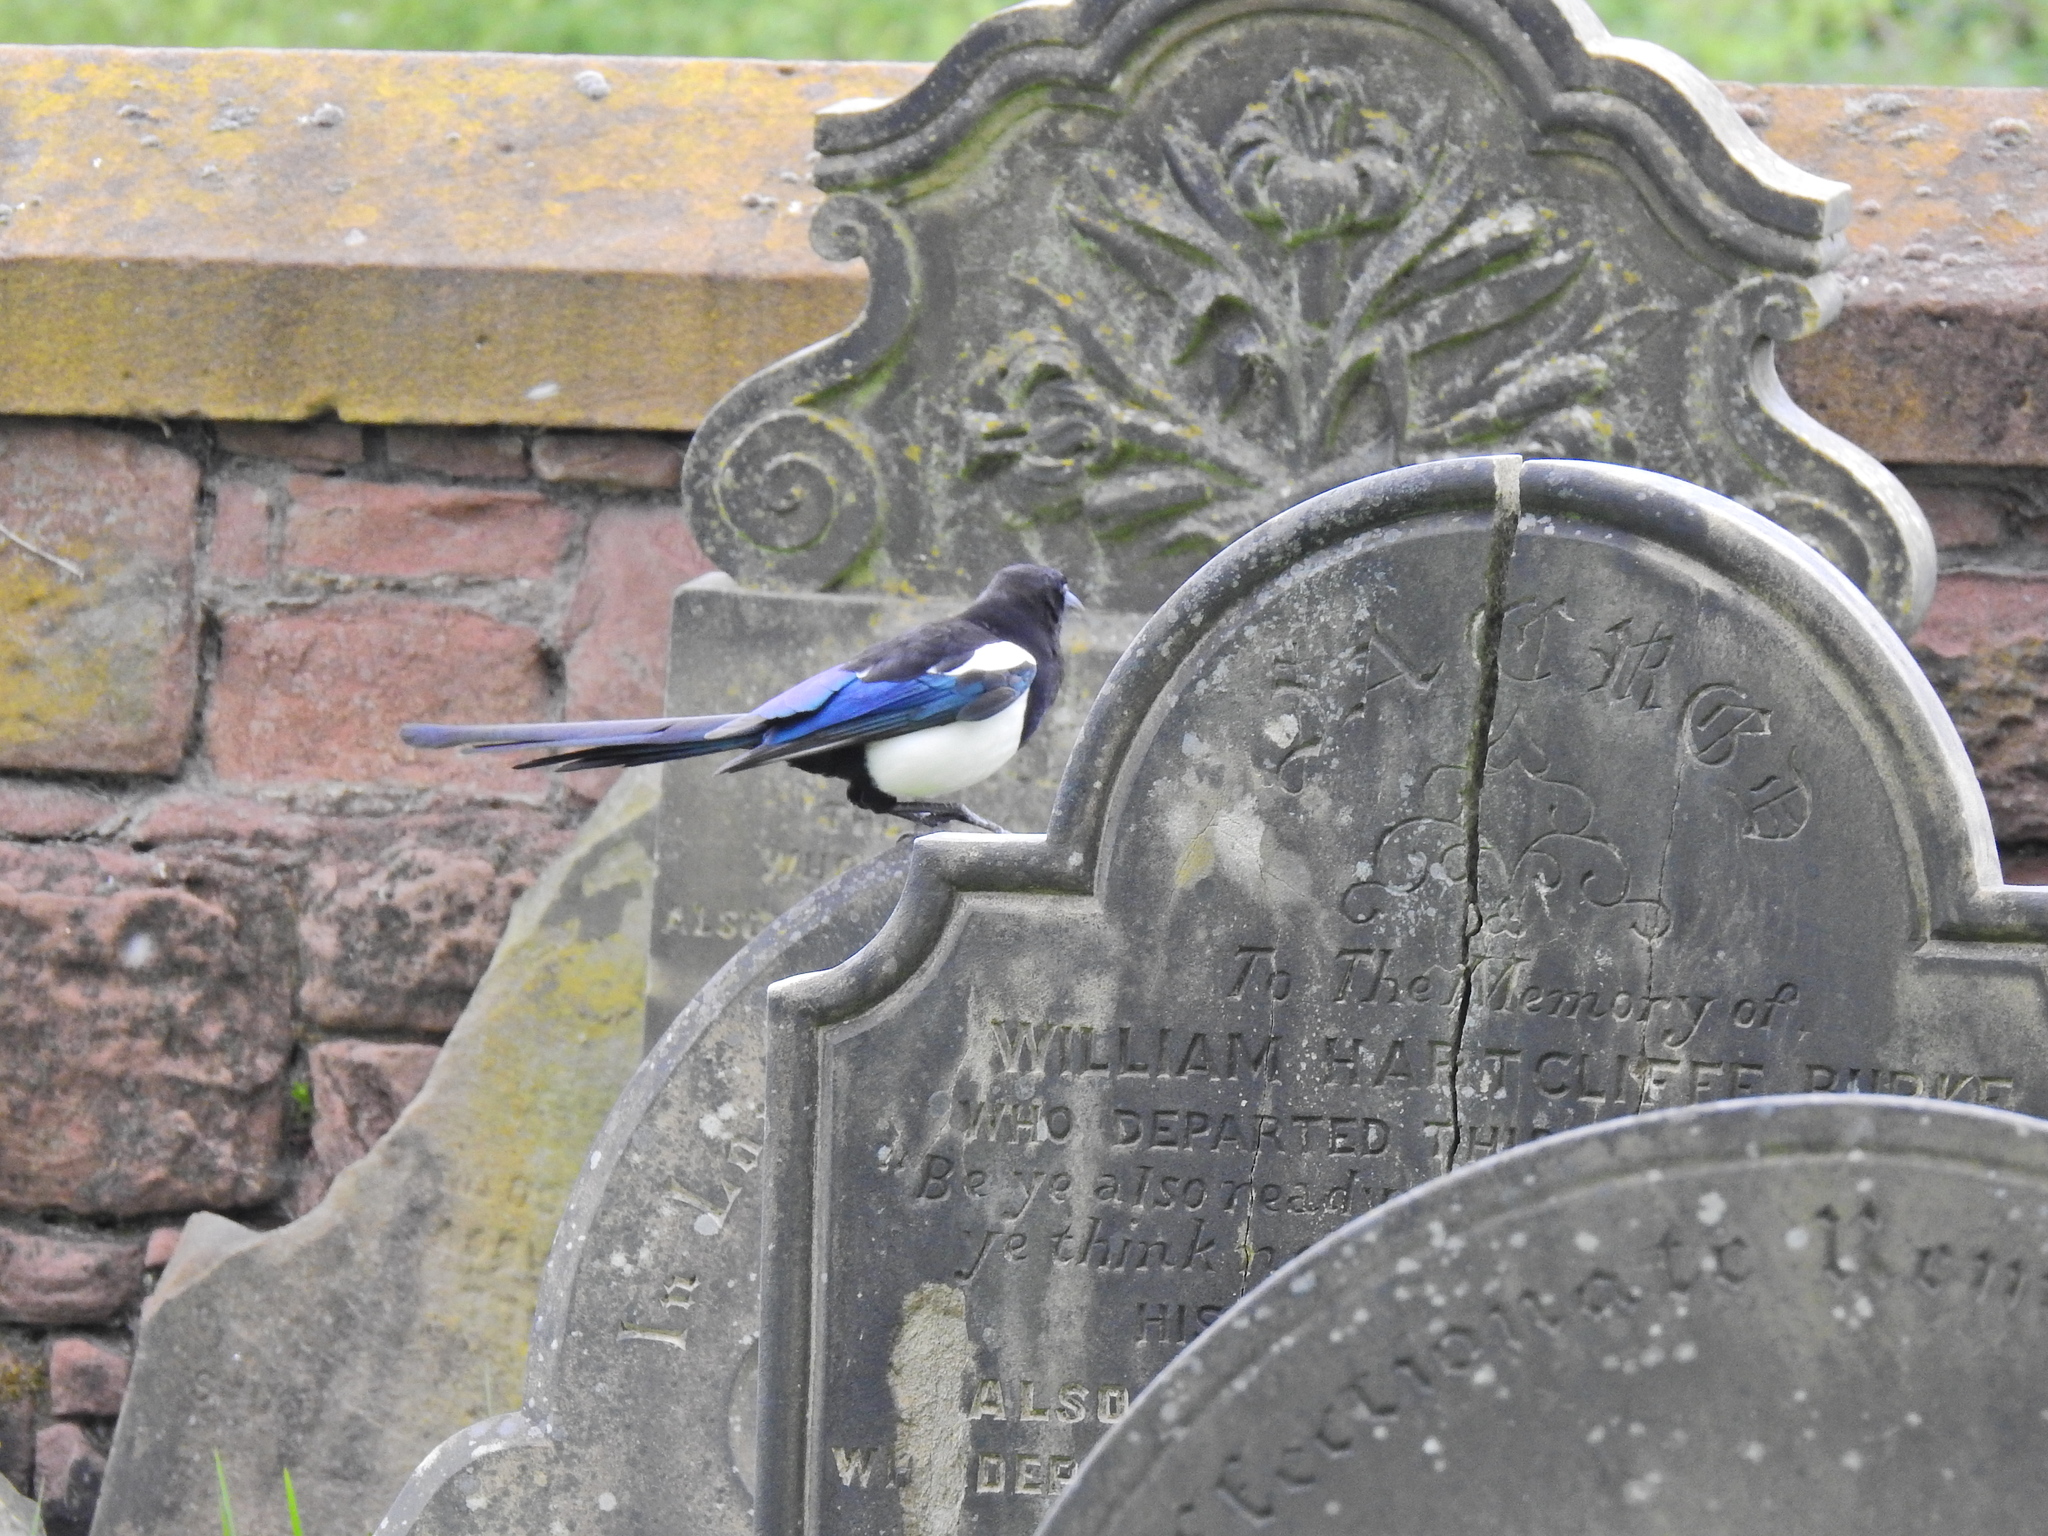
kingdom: Animalia
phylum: Chordata
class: Aves
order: Passeriformes
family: Corvidae
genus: Pica
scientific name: Pica pica
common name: Eurasian magpie
